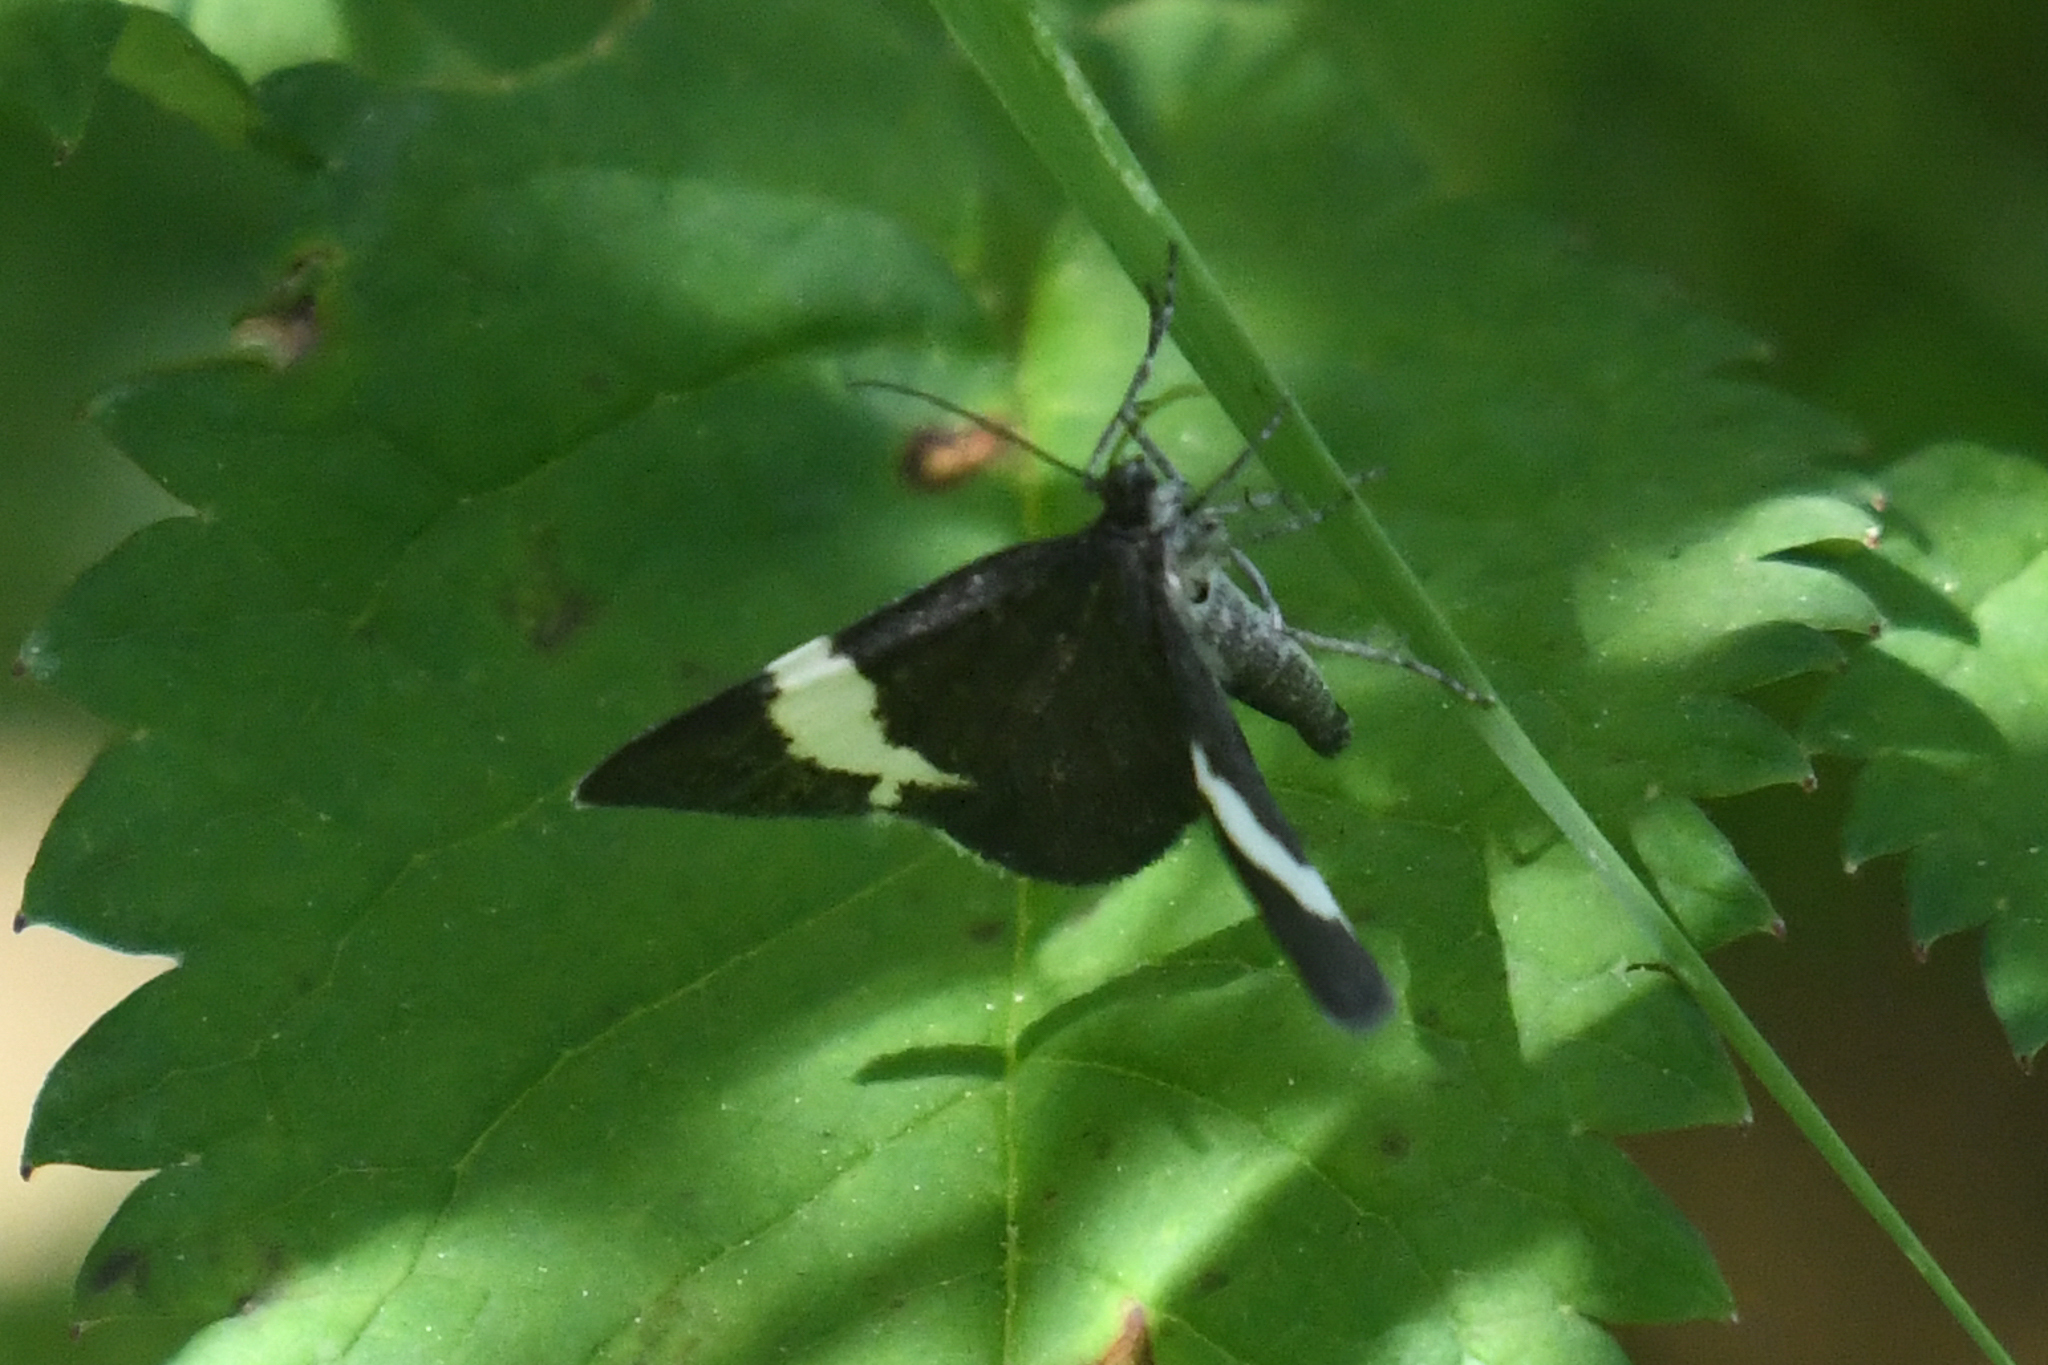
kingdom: Animalia
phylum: Arthropoda
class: Insecta
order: Lepidoptera
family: Geometridae
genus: Trichodezia
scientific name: Trichodezia albovittata
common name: White striped black
